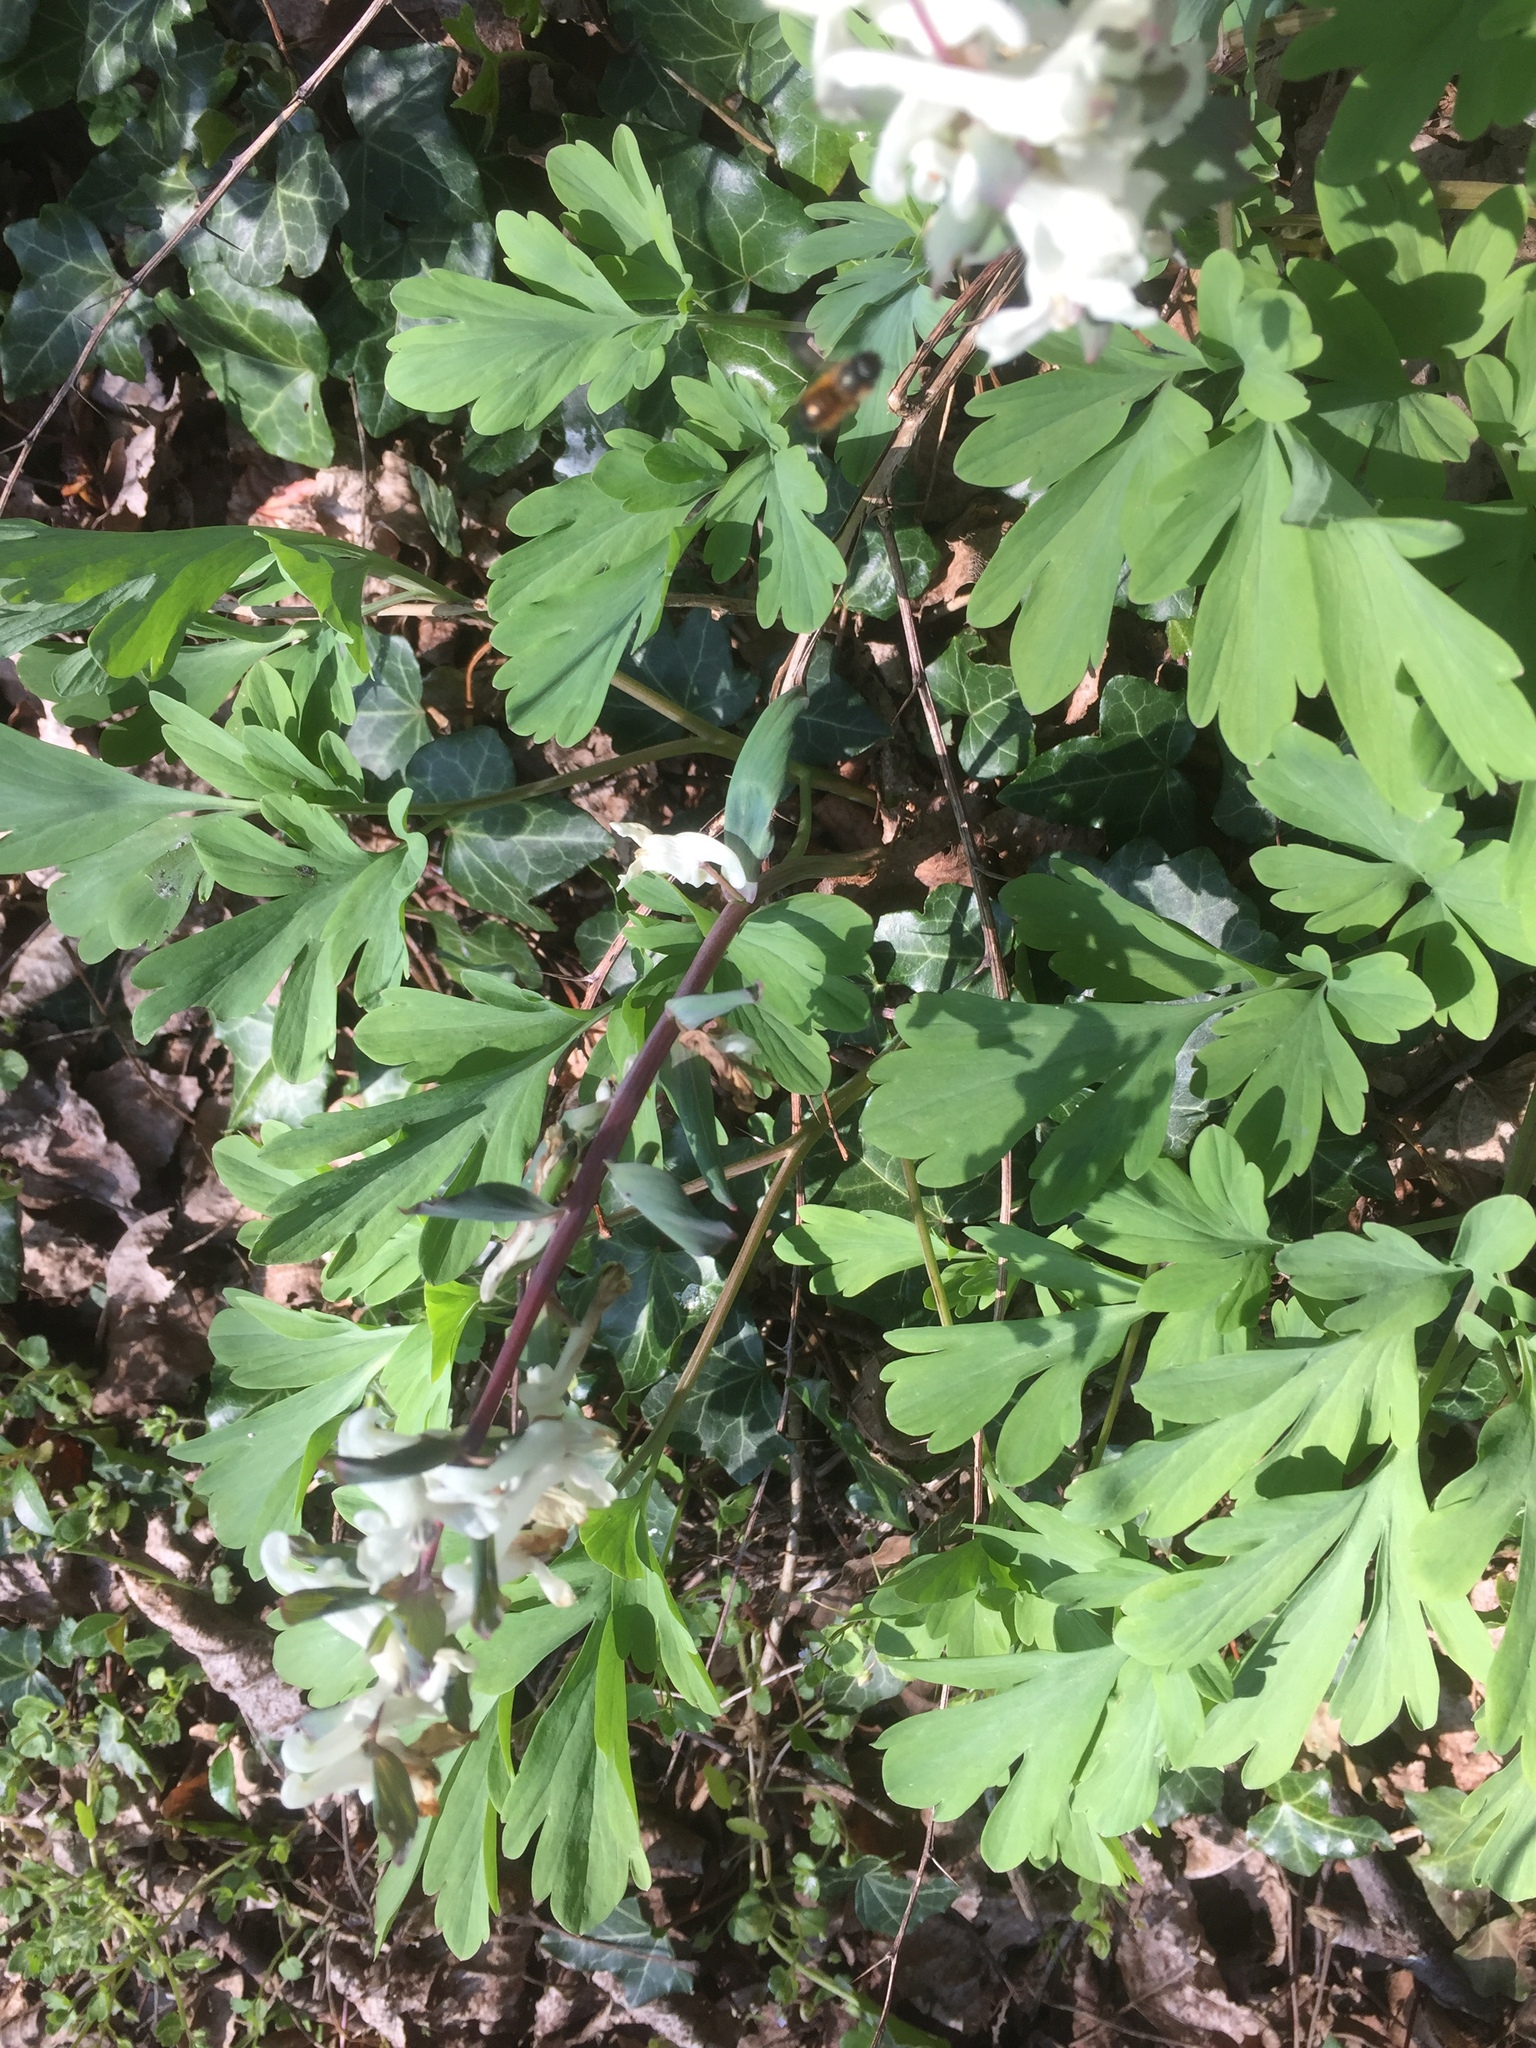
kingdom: Plantae
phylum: Tracheophyta
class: Magnoliopsida
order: Ranunculales
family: Papaveraceae
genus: Corydalis
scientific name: Corydalis cava
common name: Hollowroot
